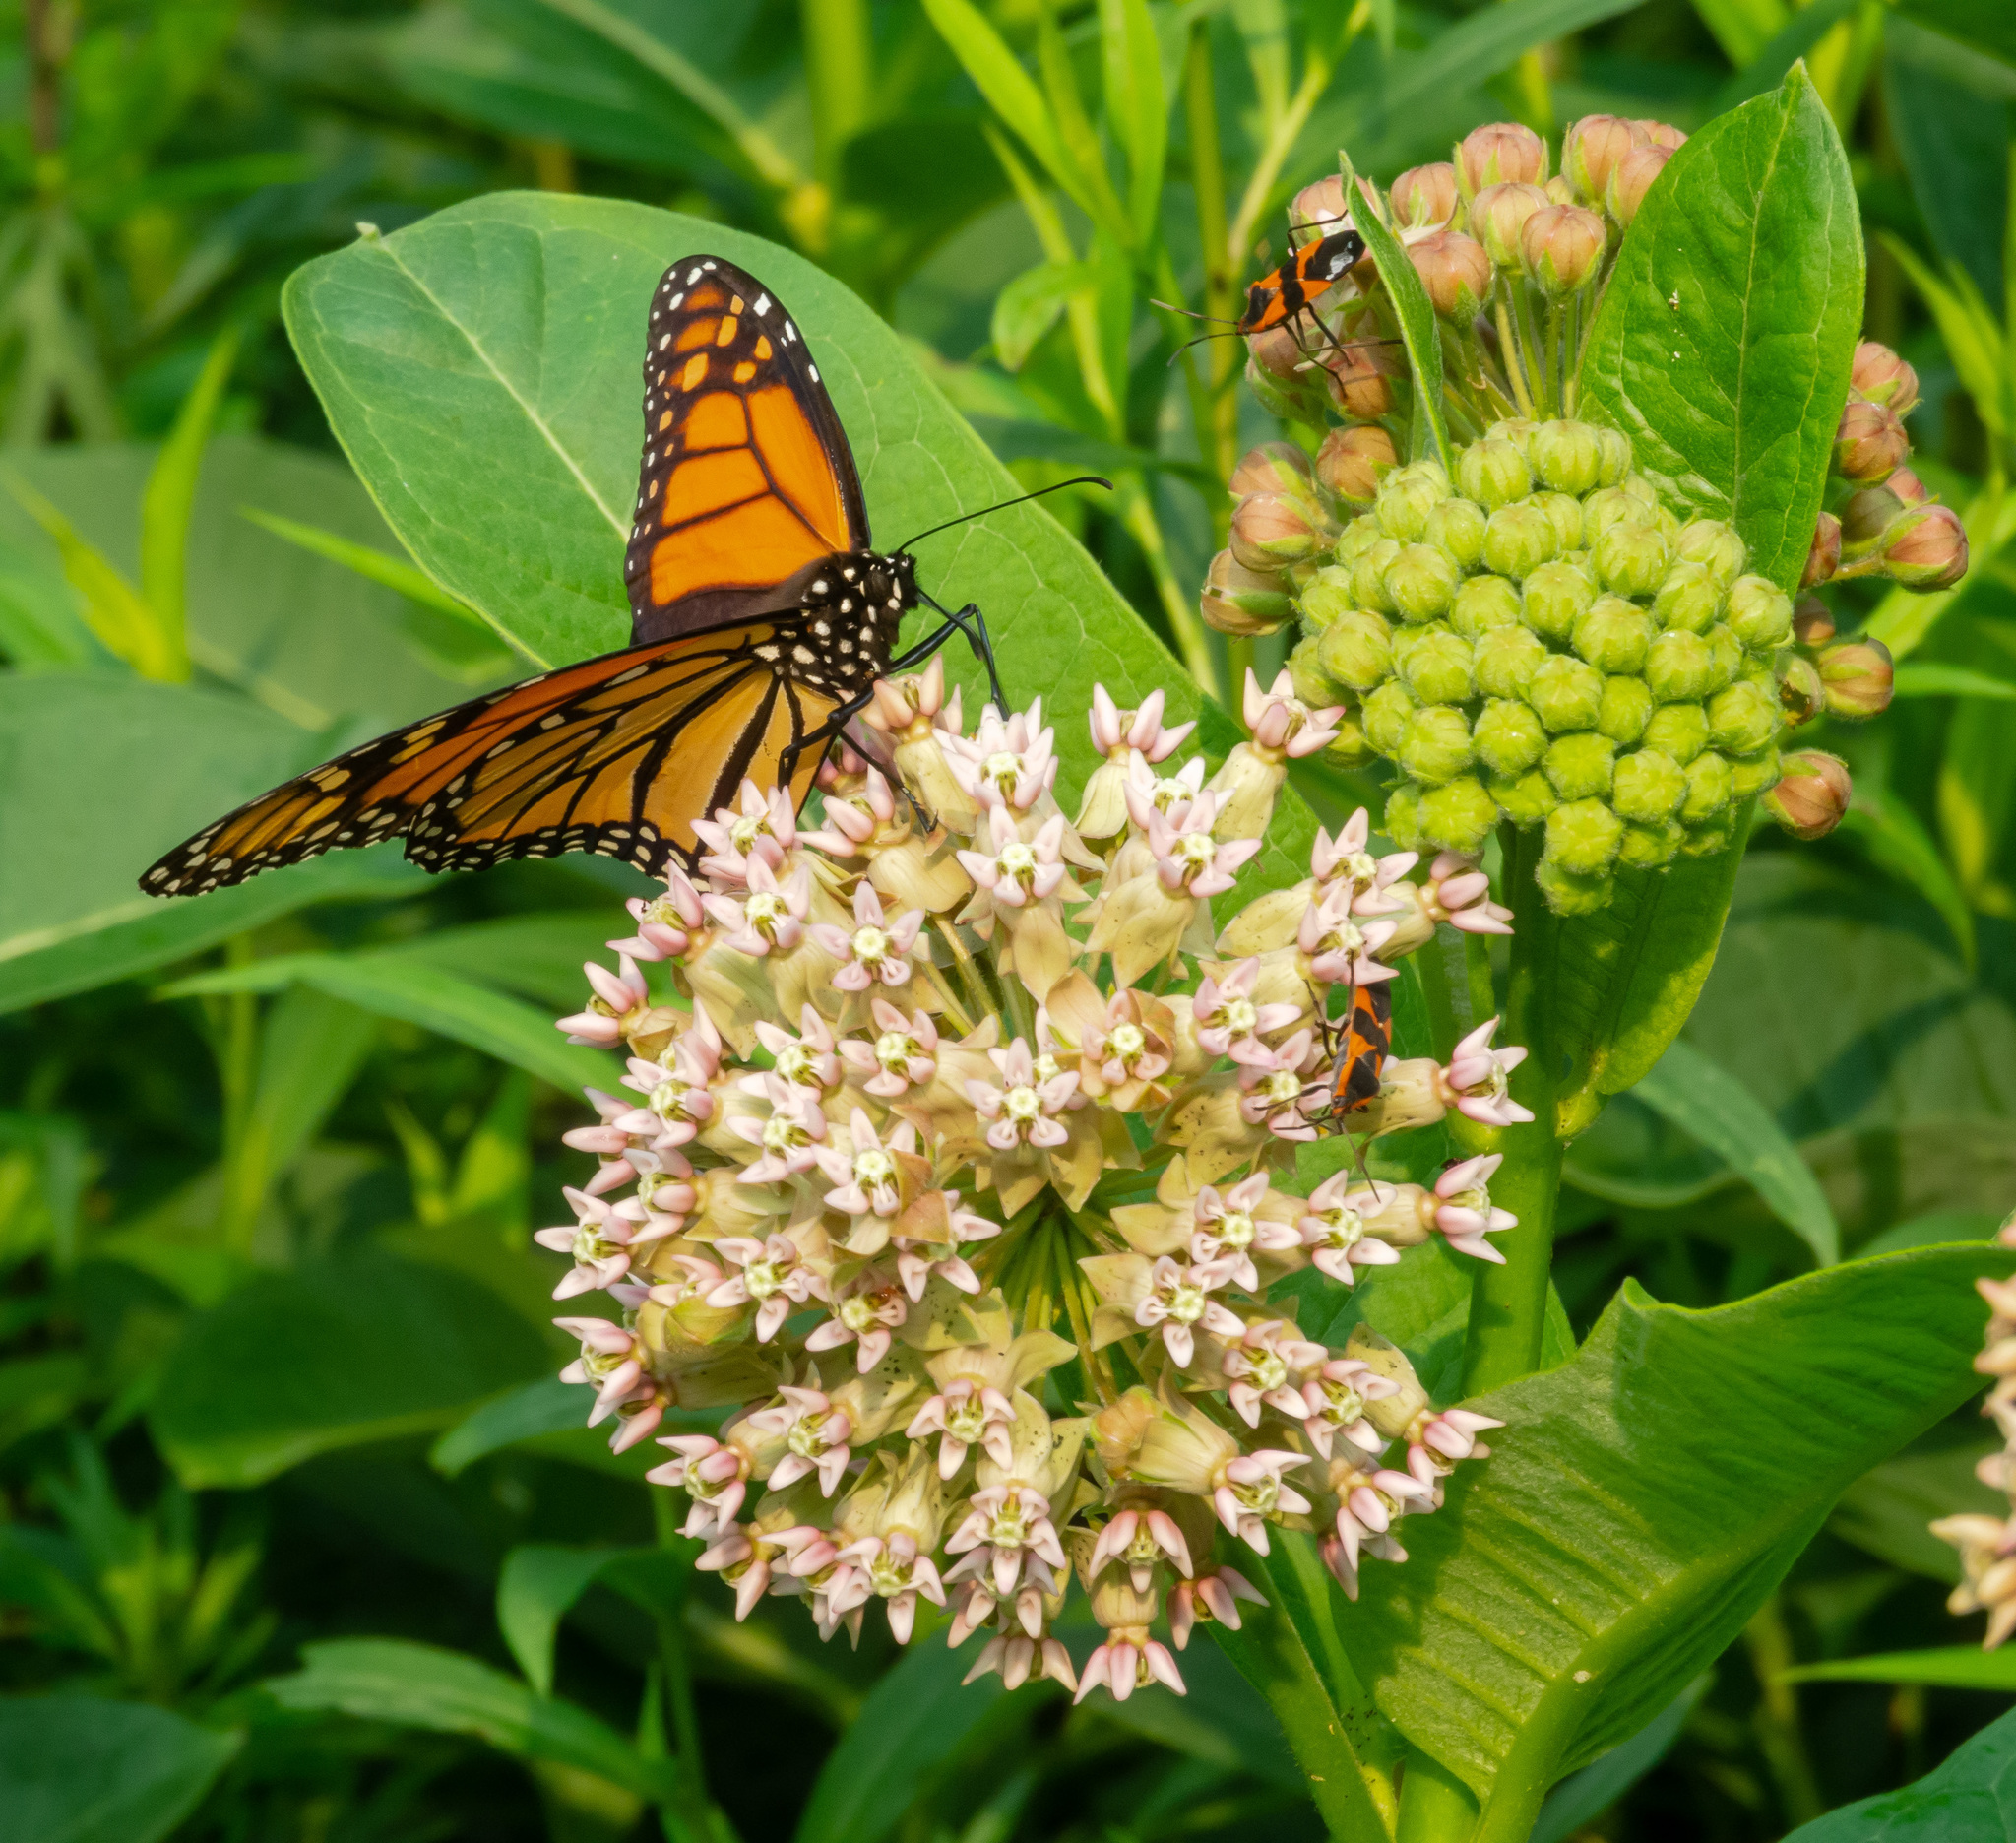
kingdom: Animalia
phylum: Arthropoda
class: Insecta
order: Lepidoptera
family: Nymphalidae
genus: Danaus
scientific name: Danaus plexippus
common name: Monarch
